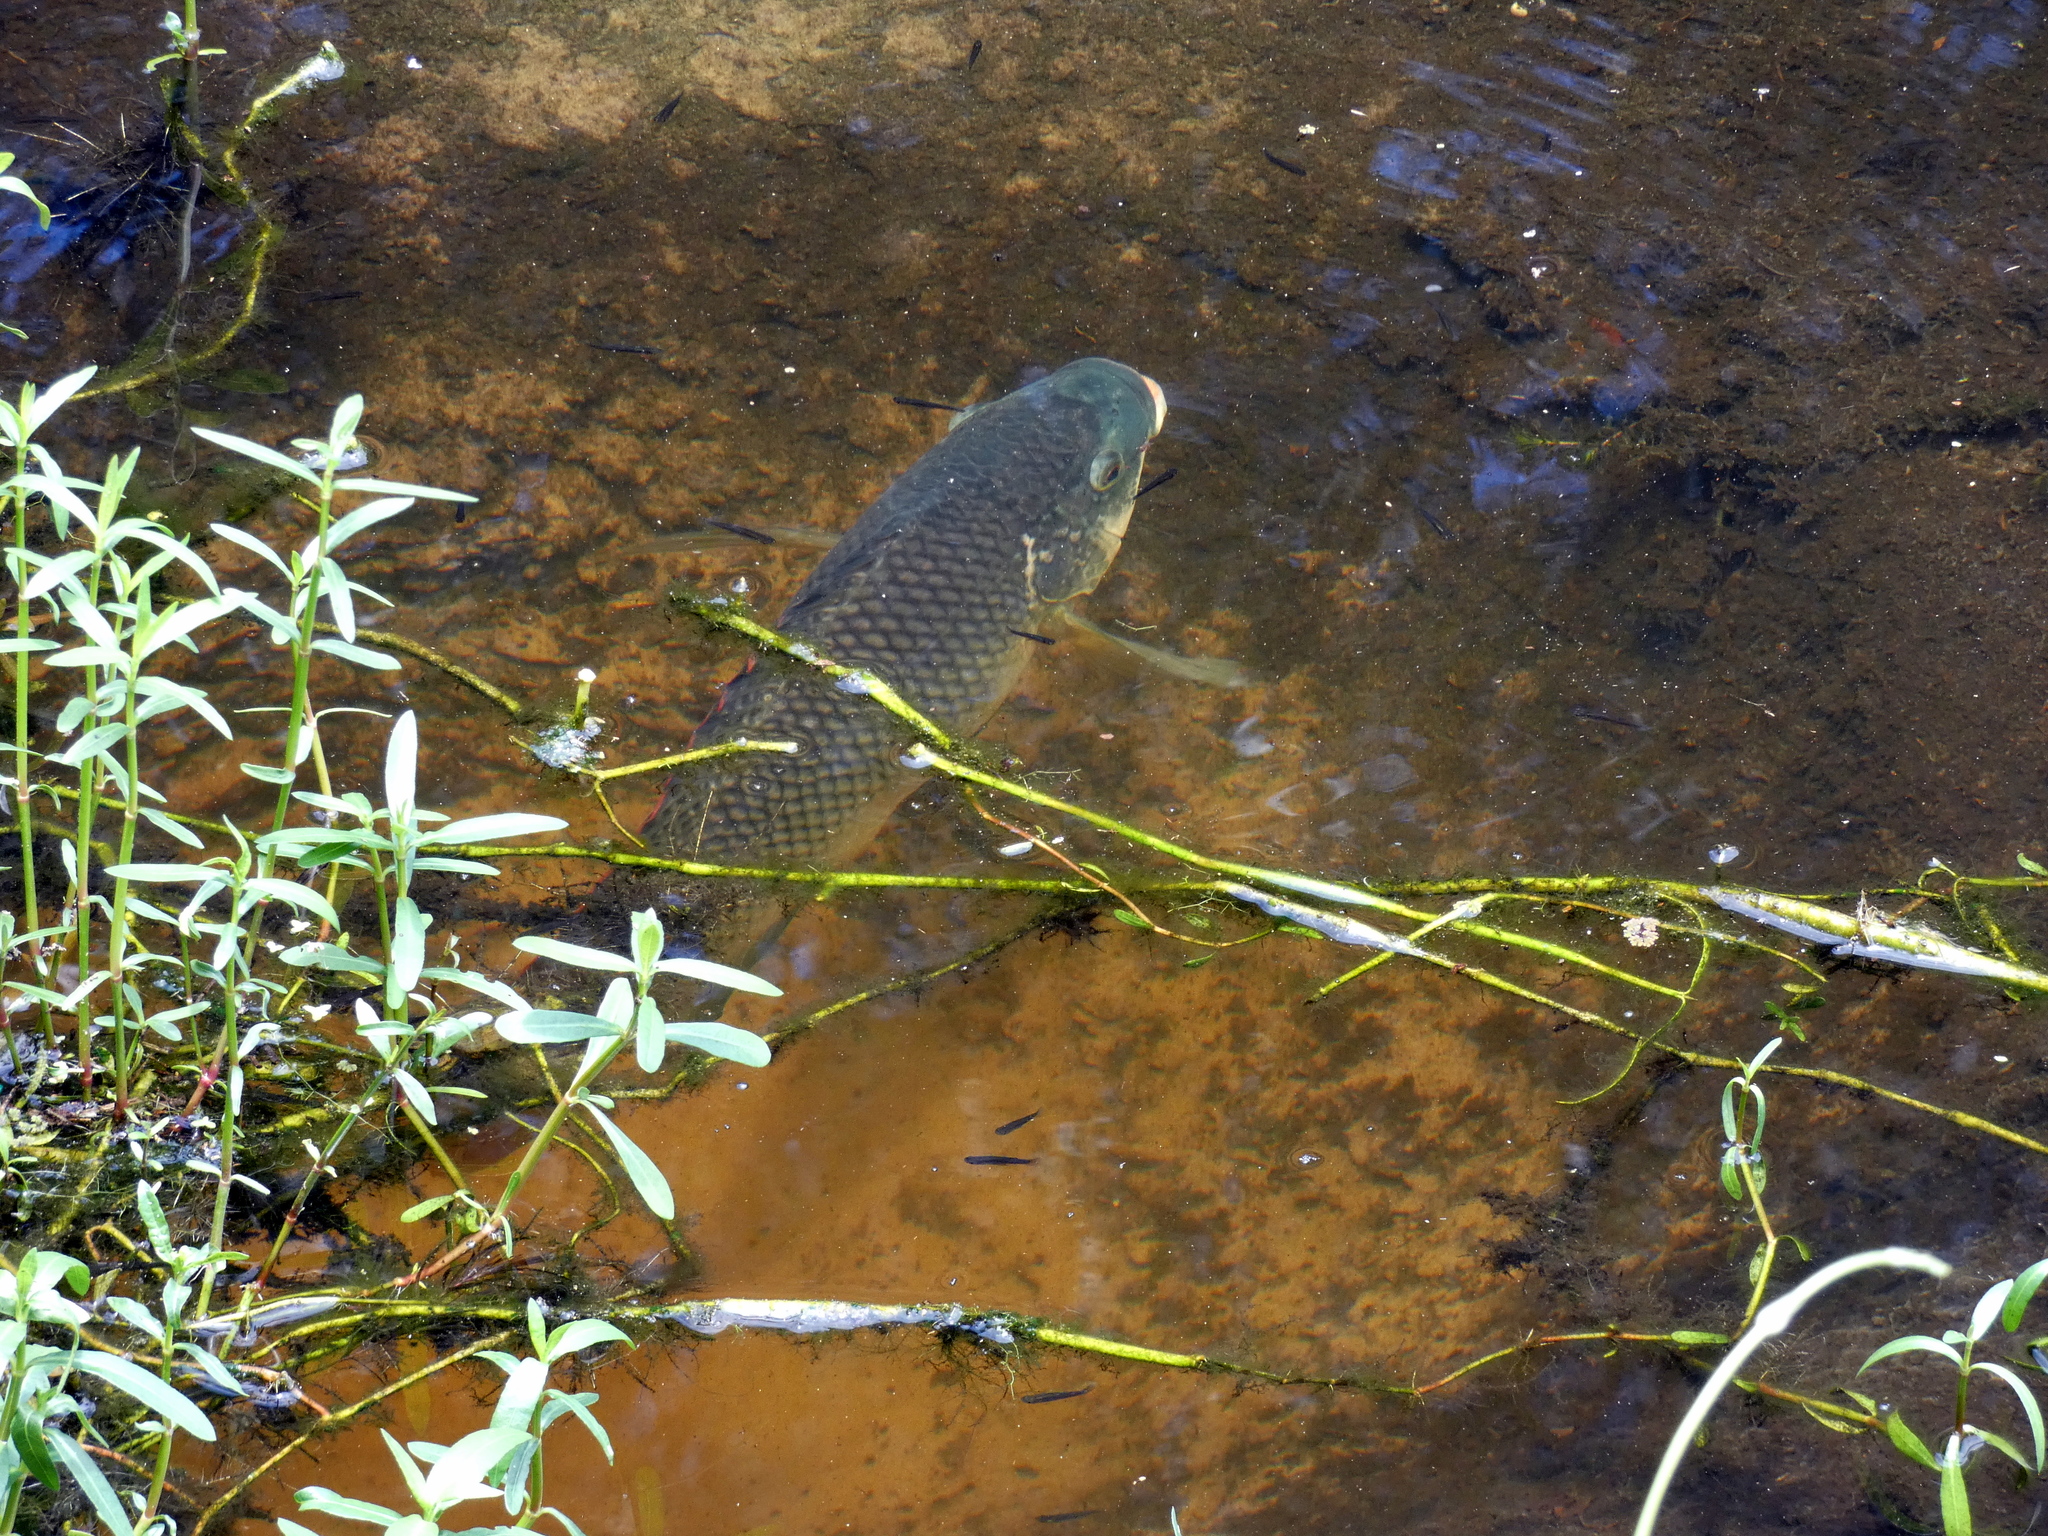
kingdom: Animalia
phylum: Chordata
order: Perciformes
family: Cichlidae
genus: Oreochromis
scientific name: Oreochromis aureus
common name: Blue tilapia
